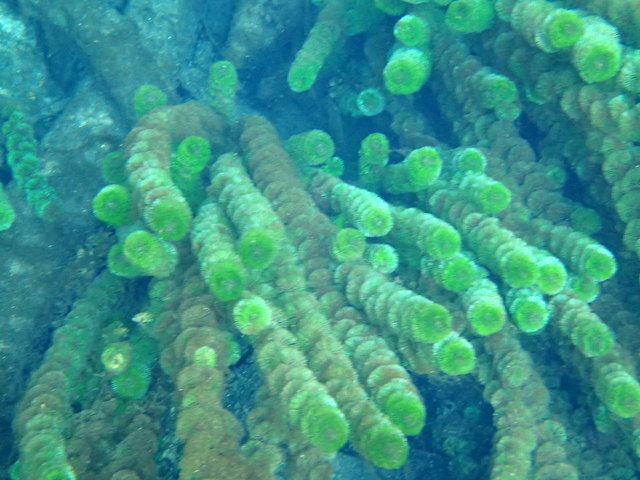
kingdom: Plantae
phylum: Tracheophyta
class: Magnoliopsida
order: Lamiales
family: Plantaginaceae
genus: Limnophila
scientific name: Limnophila sessiliflora
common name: Asian marshweed
